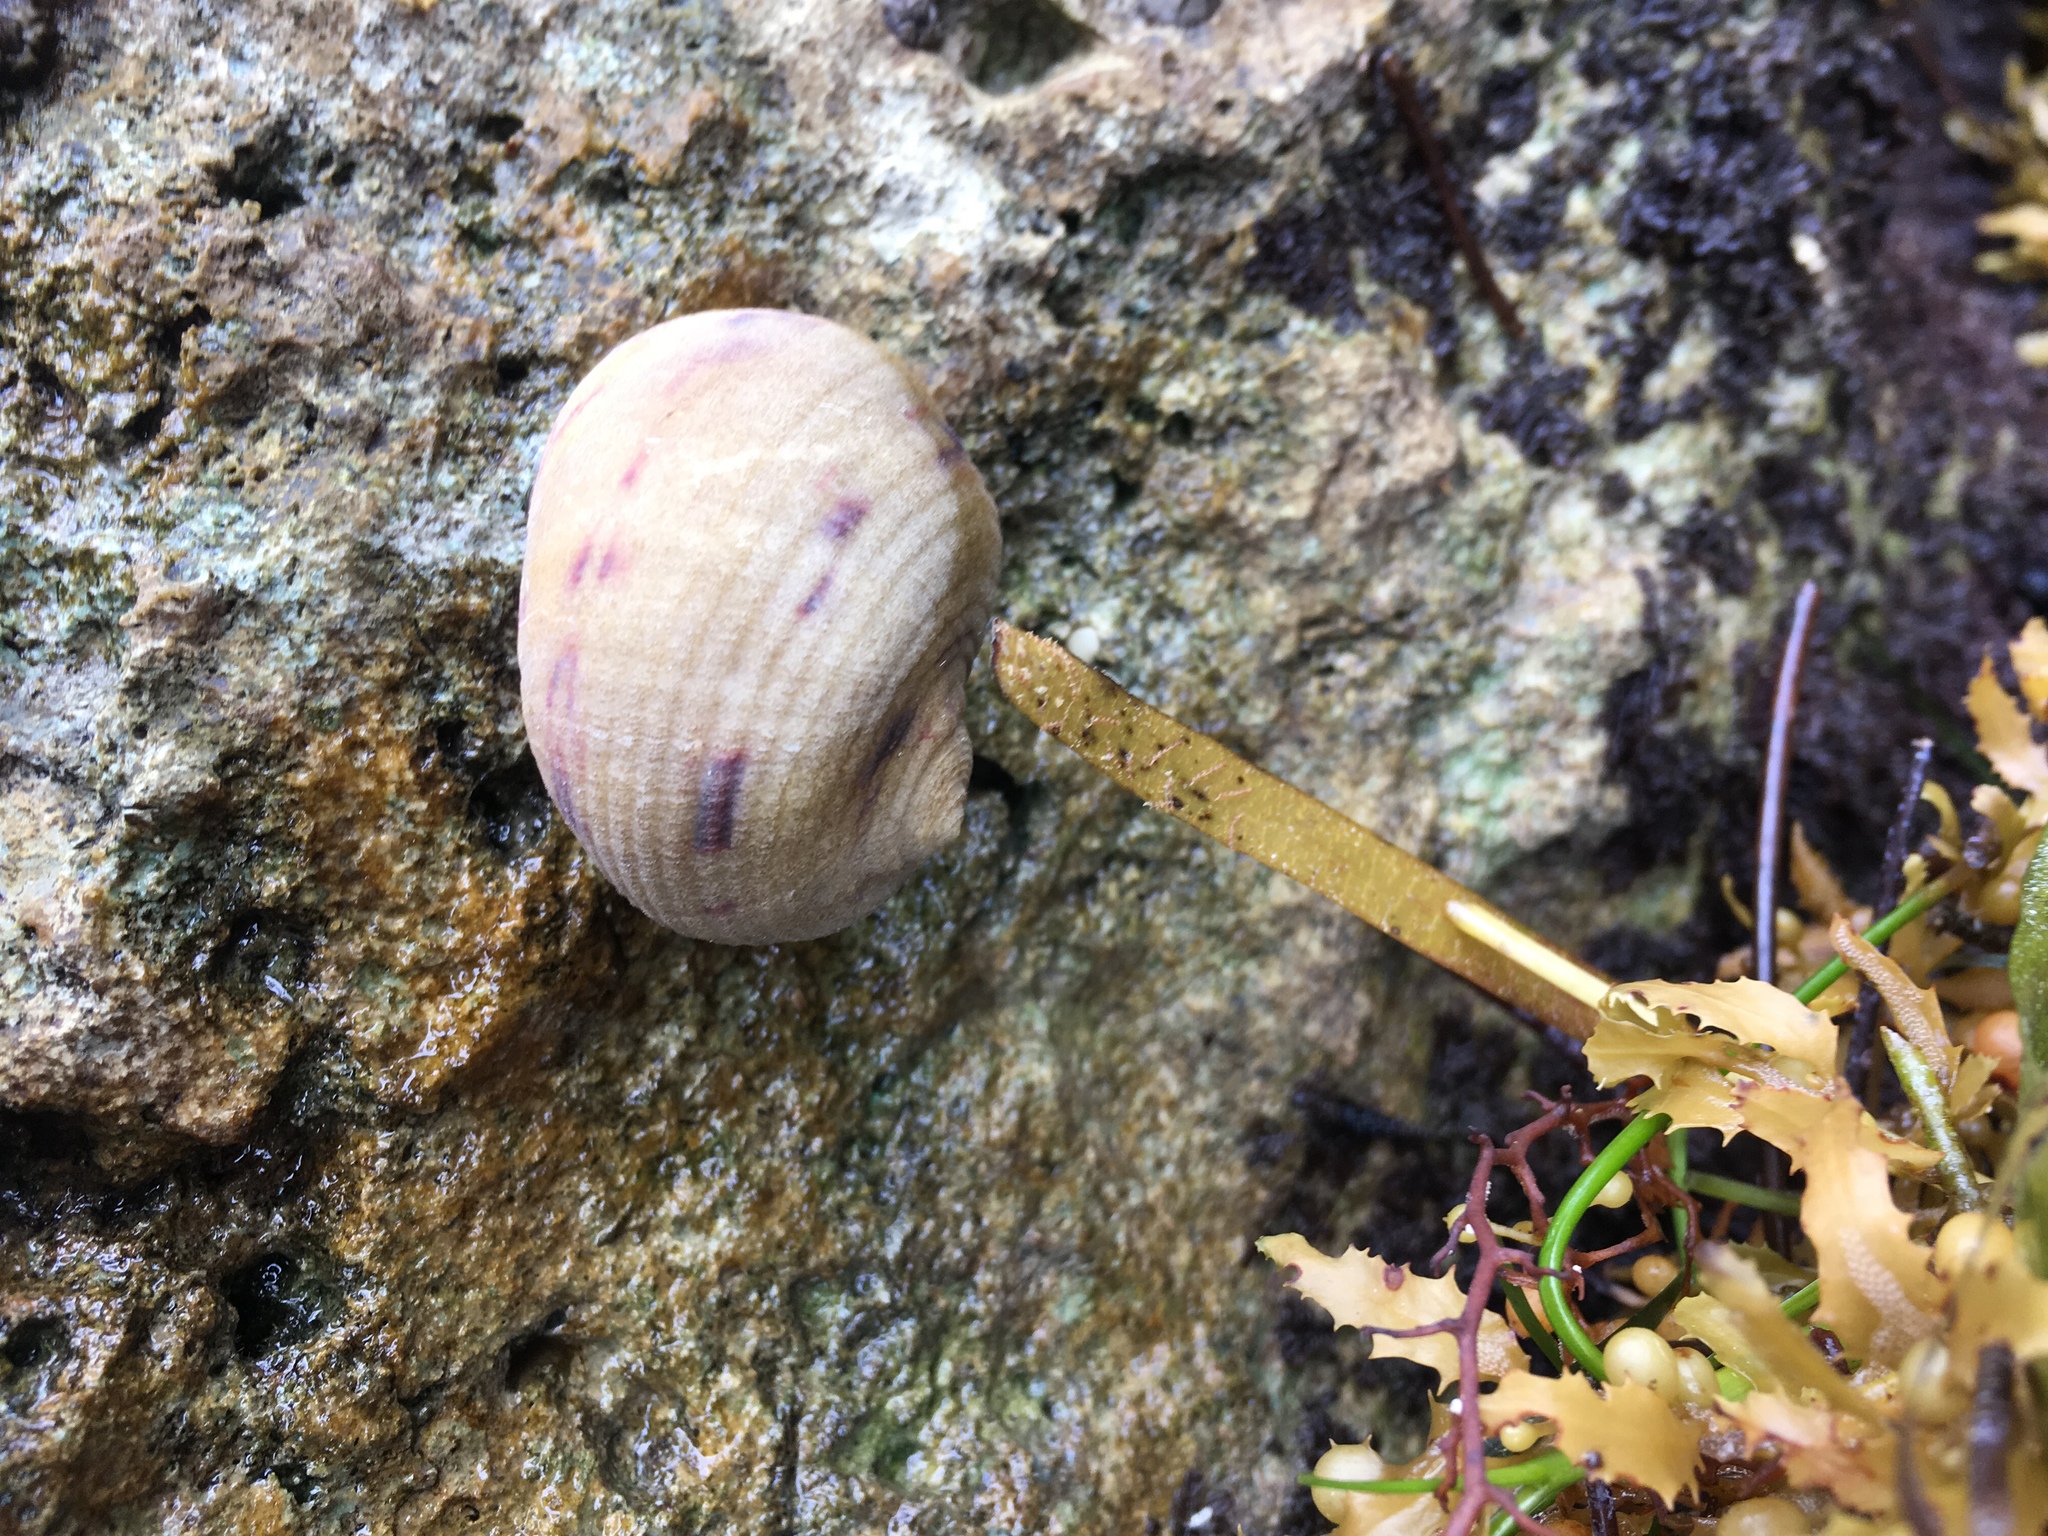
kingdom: Animalia
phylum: Mollusca
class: Gastropoda
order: Cycloneritida
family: Neritidae
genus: Nerita
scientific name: Nerita peloronta
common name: Bleeding tooth
